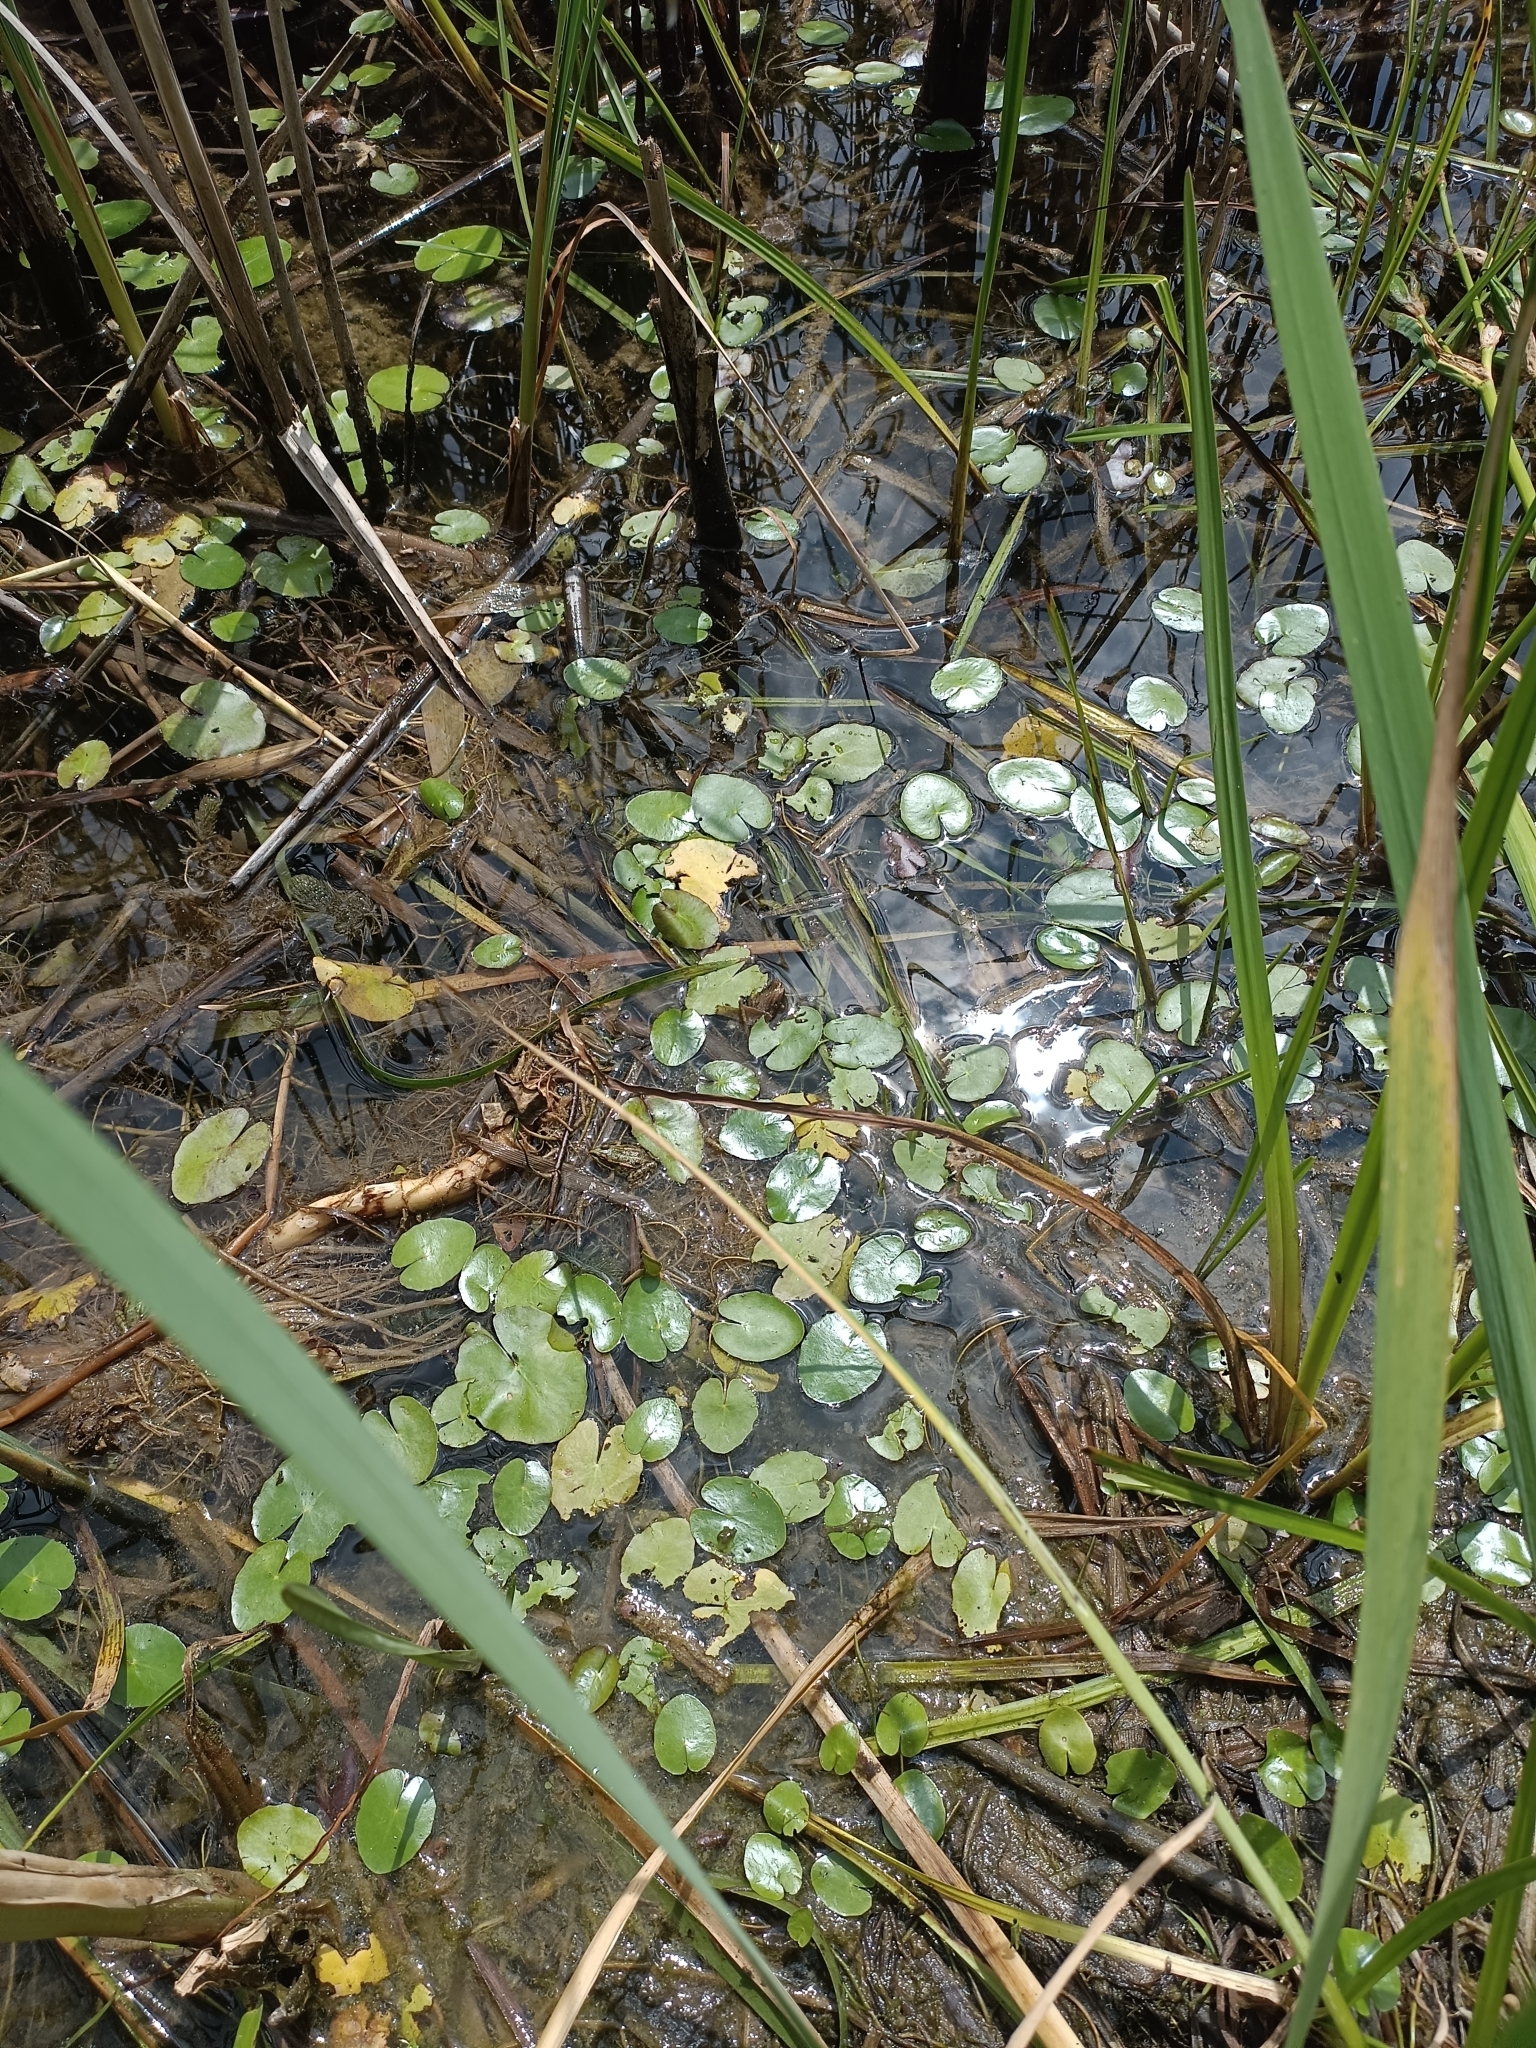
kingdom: Plantae
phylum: Tracheophyta
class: Magnoliopsida
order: Asterales
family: Menyanthaceae
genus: Nymphoides
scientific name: Nymphoides peltata
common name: Fringed water-lily
